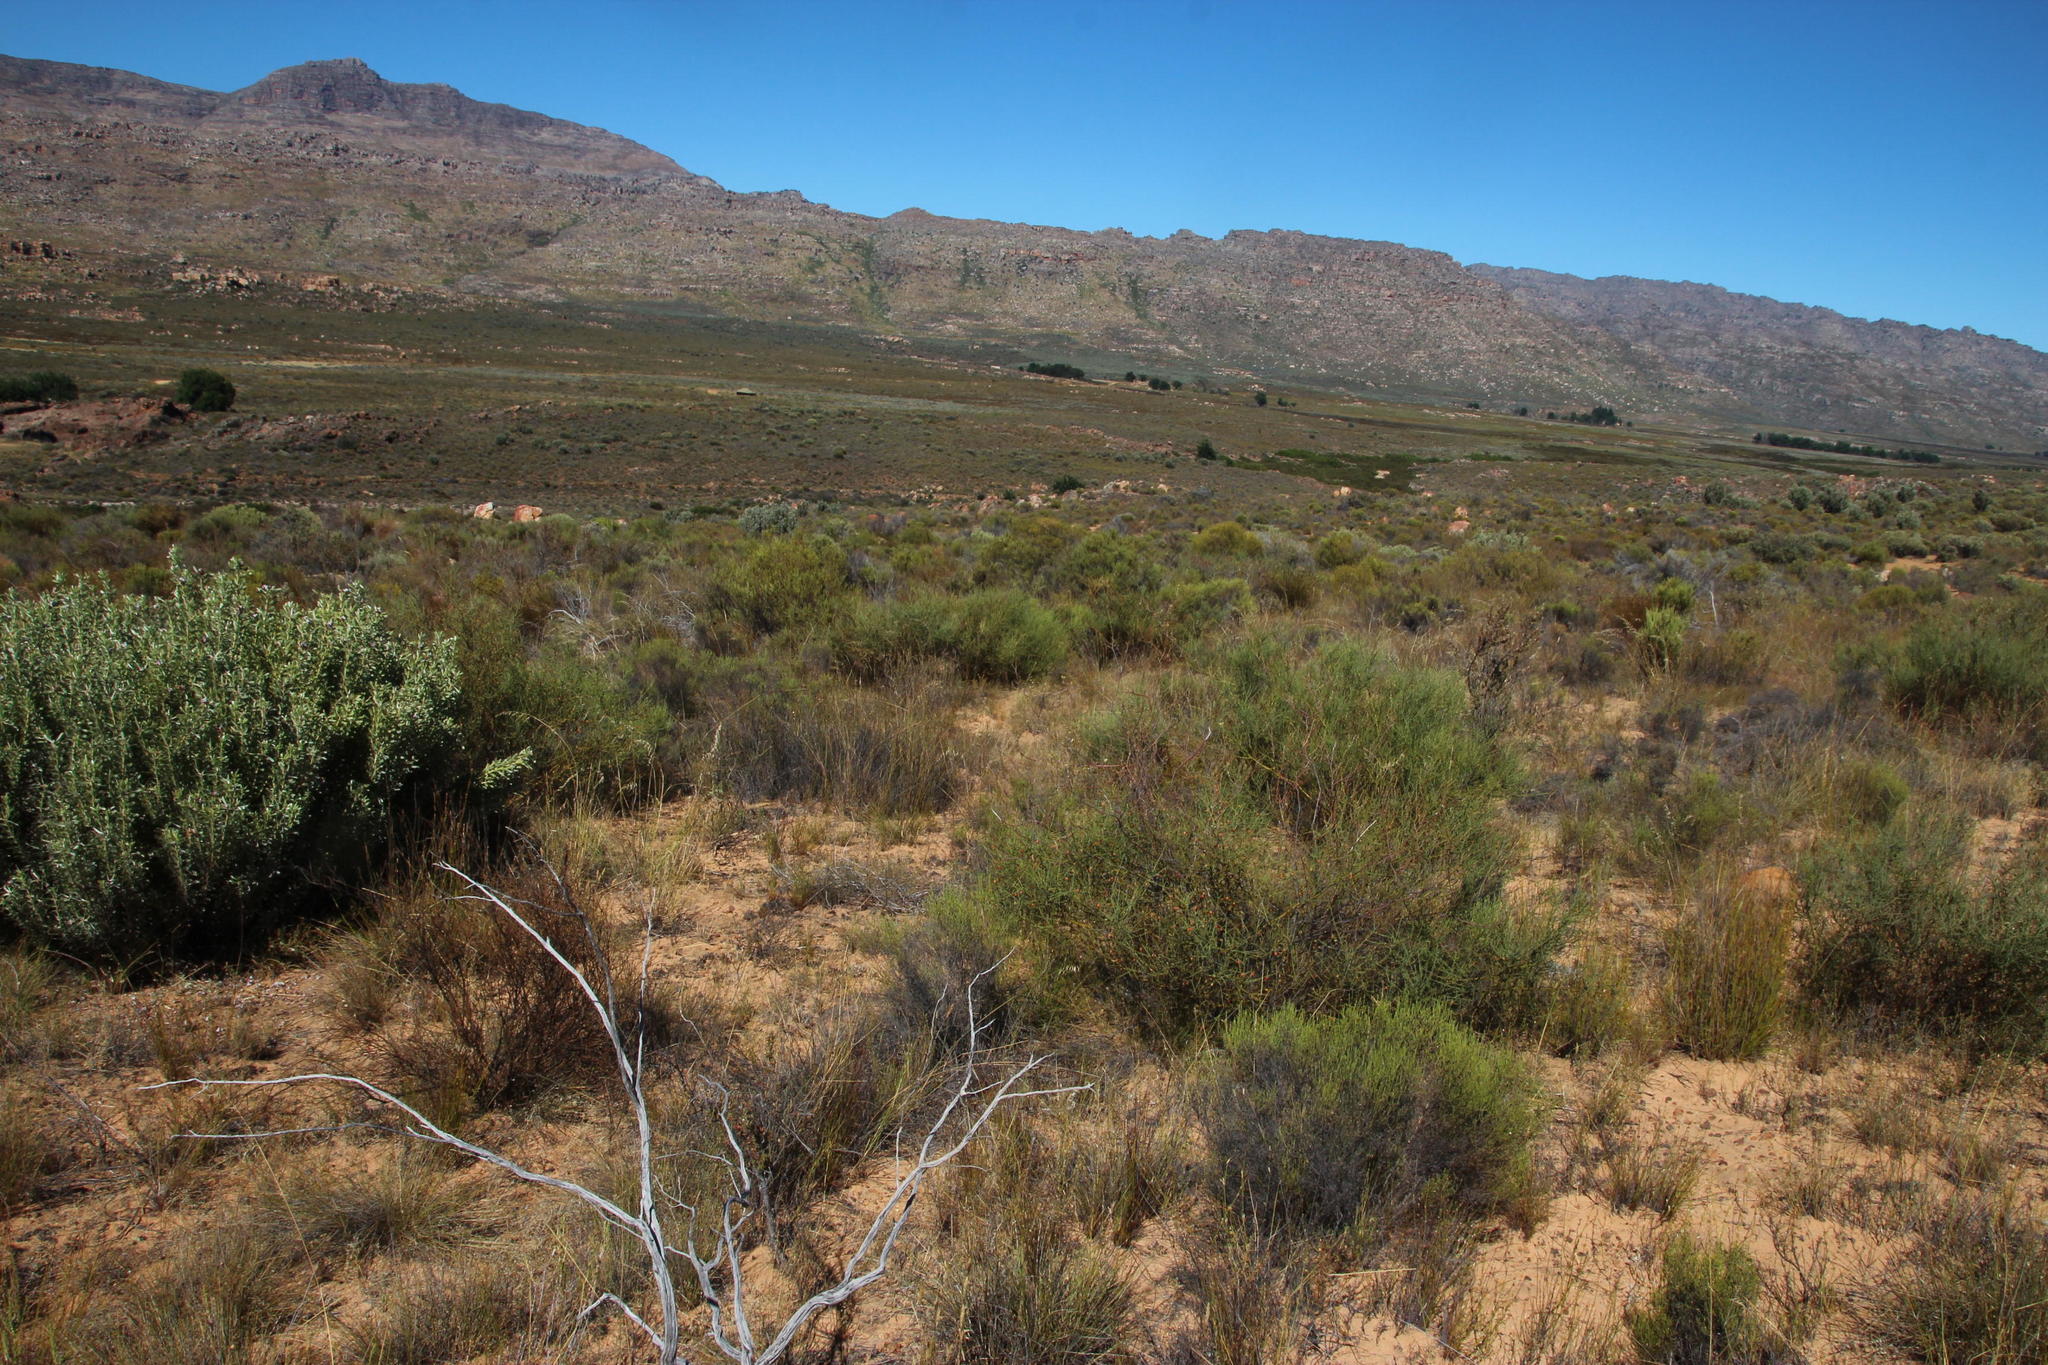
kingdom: Plantae
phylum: Tracheophyta
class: Magnoliopsida
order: Fabales
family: Polygalaceae
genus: Muraltia
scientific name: Muraltia spinosa
